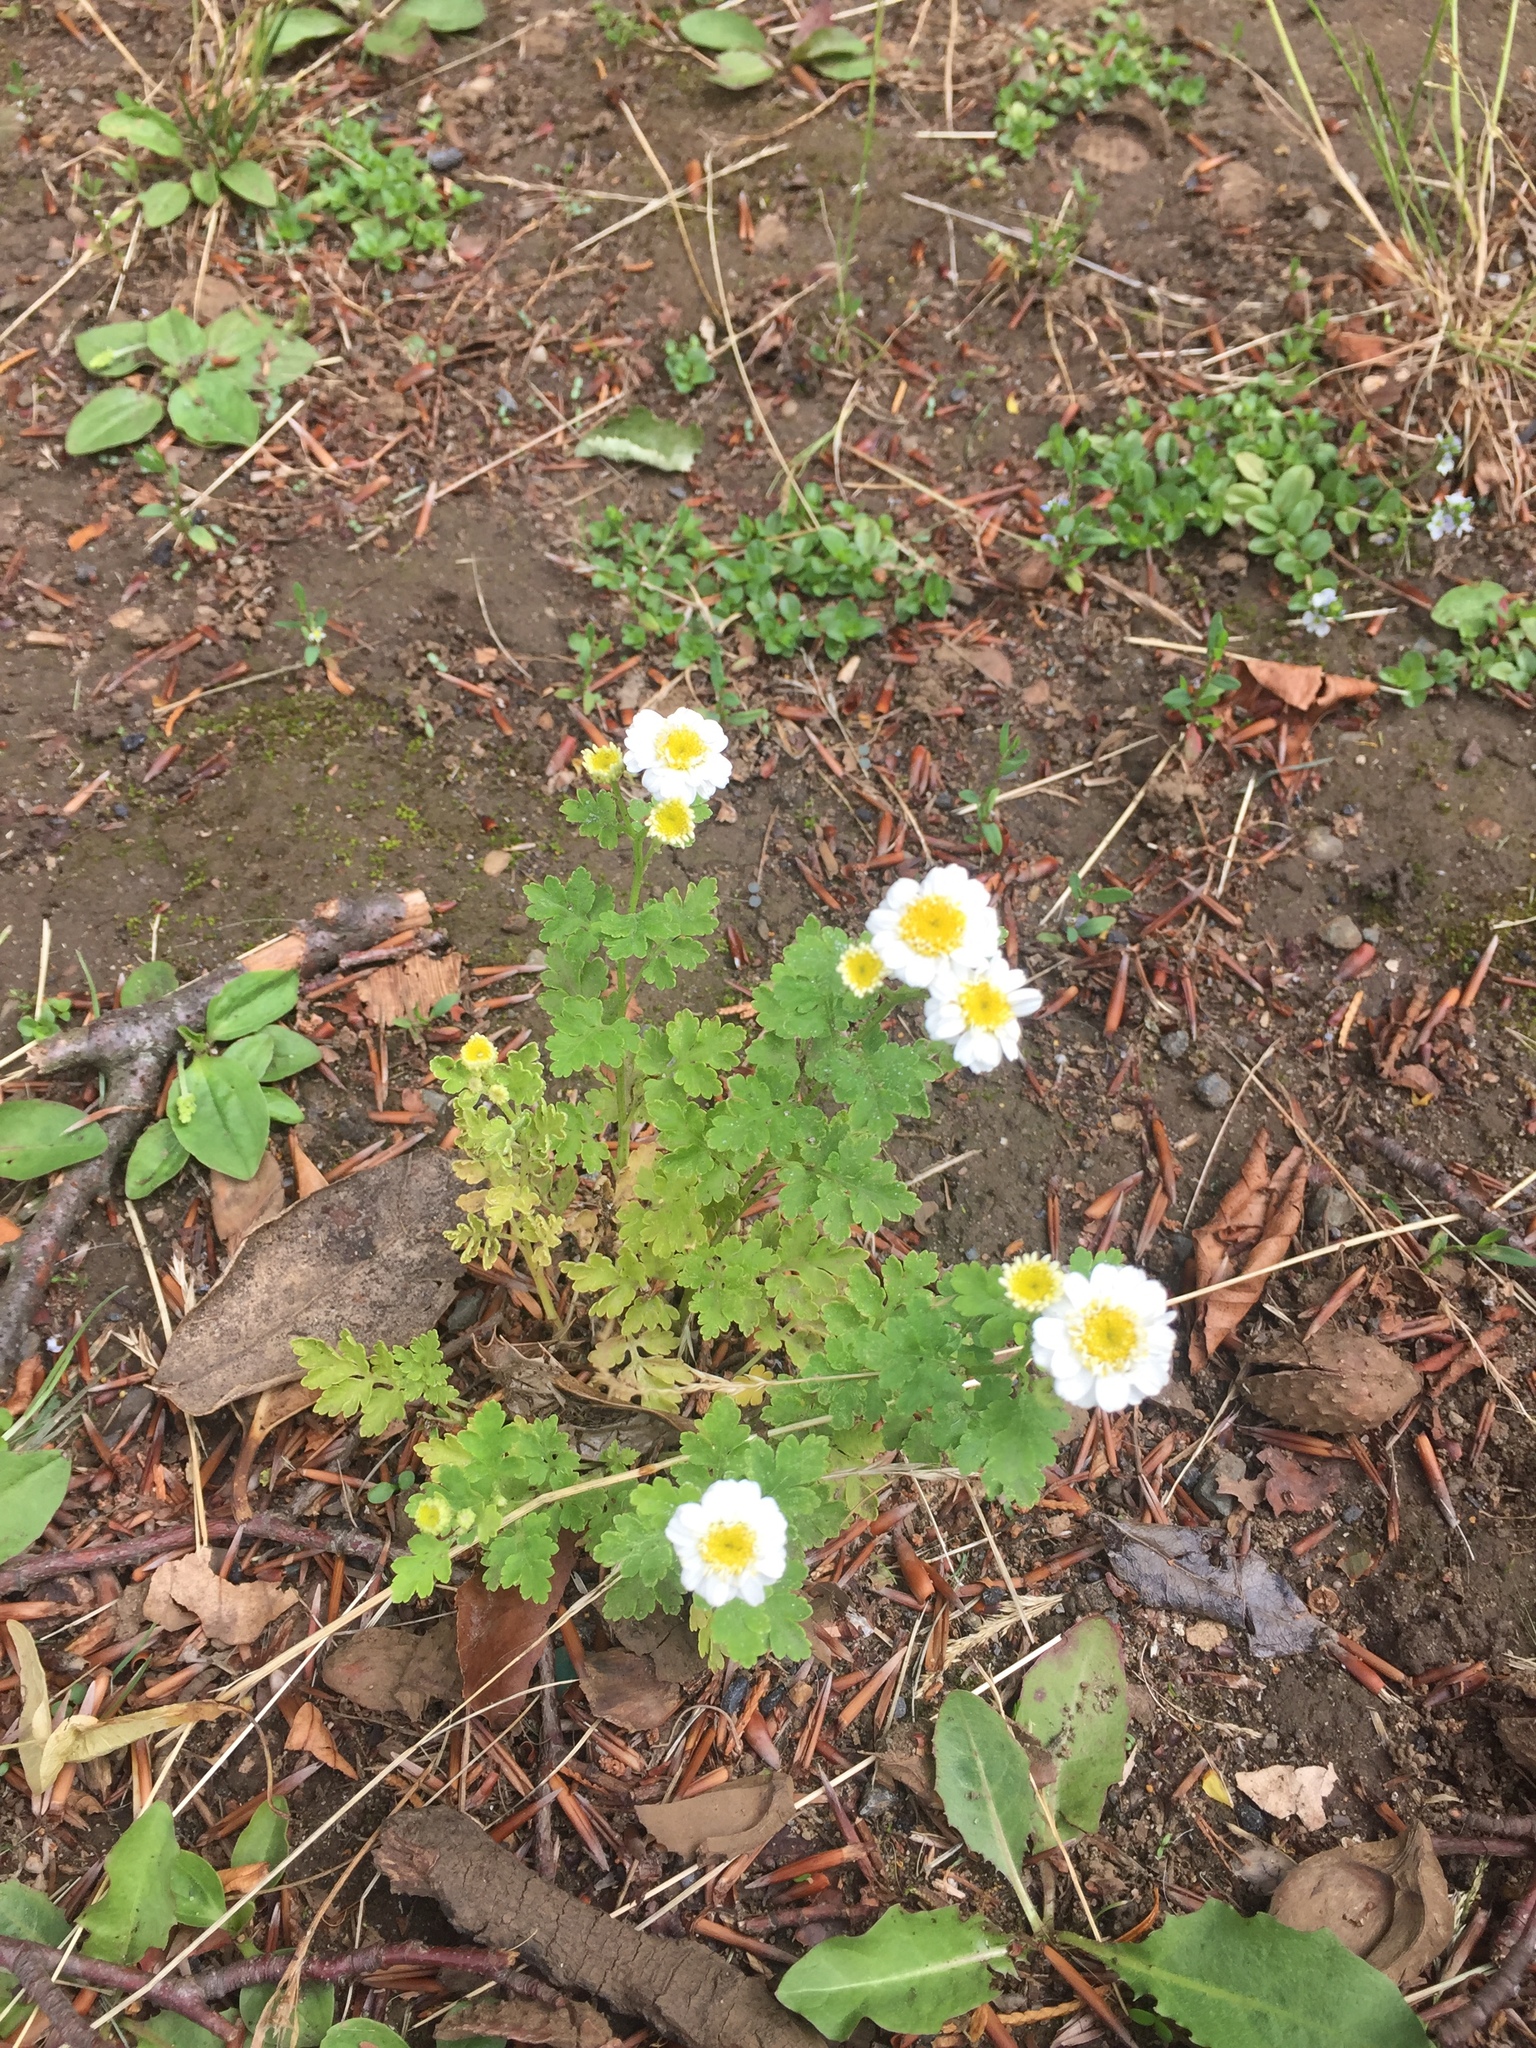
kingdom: Plantae
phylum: Tracheophyta
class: Magnoliopsida
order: Asterales
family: Asteraceae
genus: Tanacetum
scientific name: Tanacetum parthenium
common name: Feverfew
